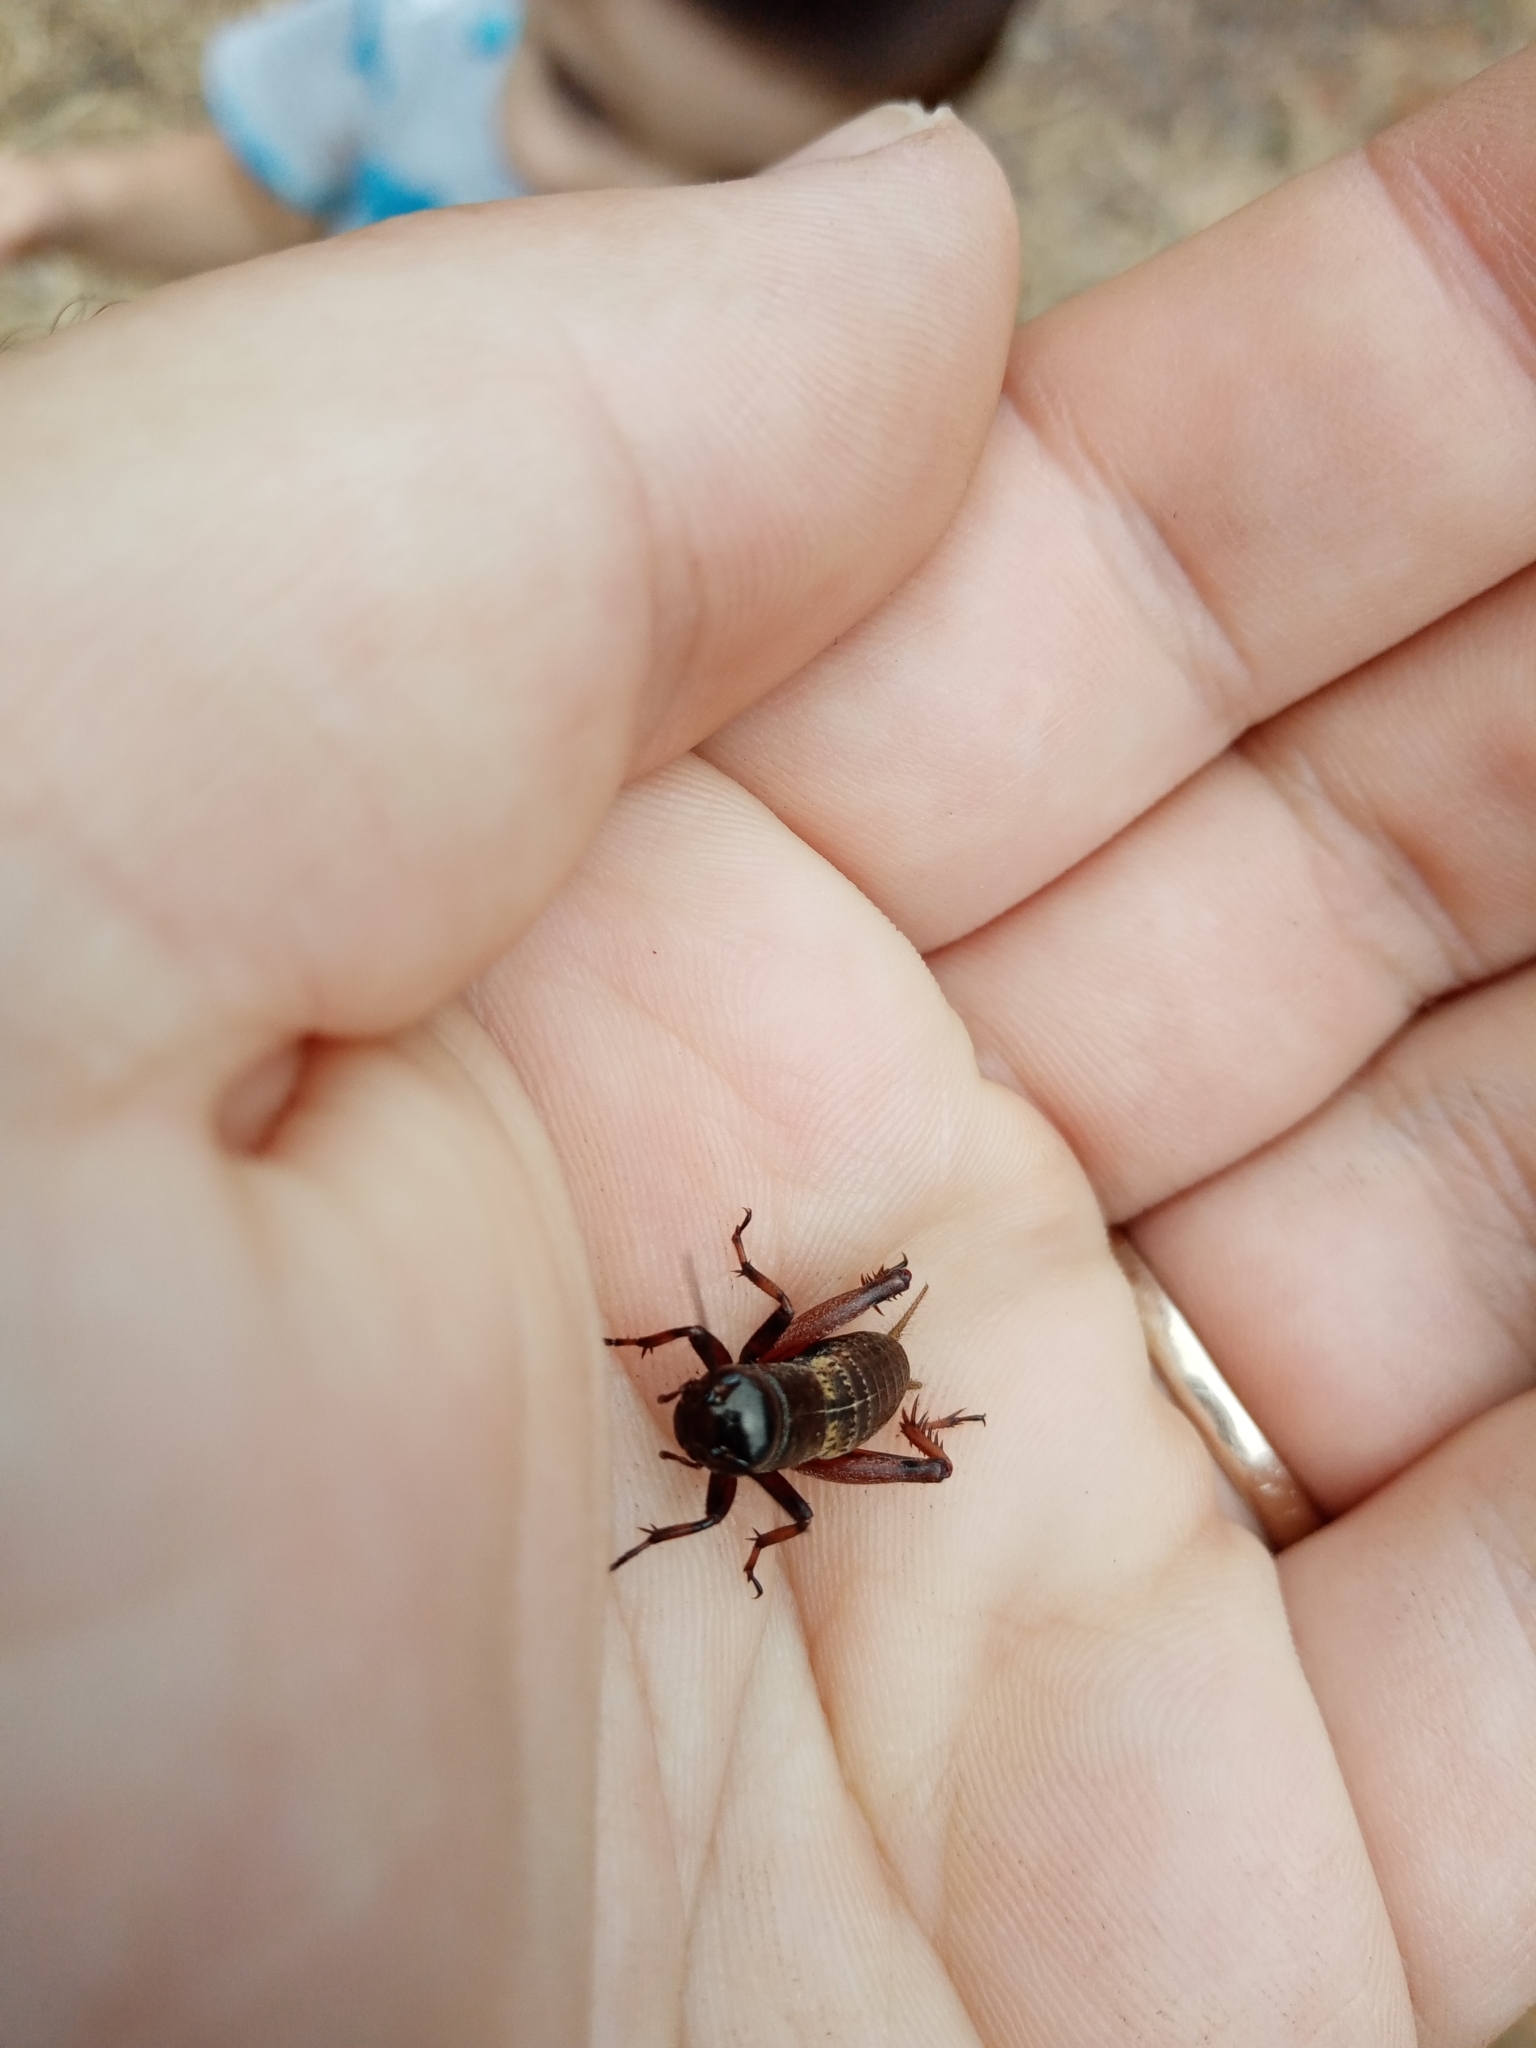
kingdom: Animalia
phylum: Arthropoda
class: Insecta
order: Orthoptera
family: Gryllidae
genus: Gryllus
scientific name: Gryllus campestris
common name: Field cricket
